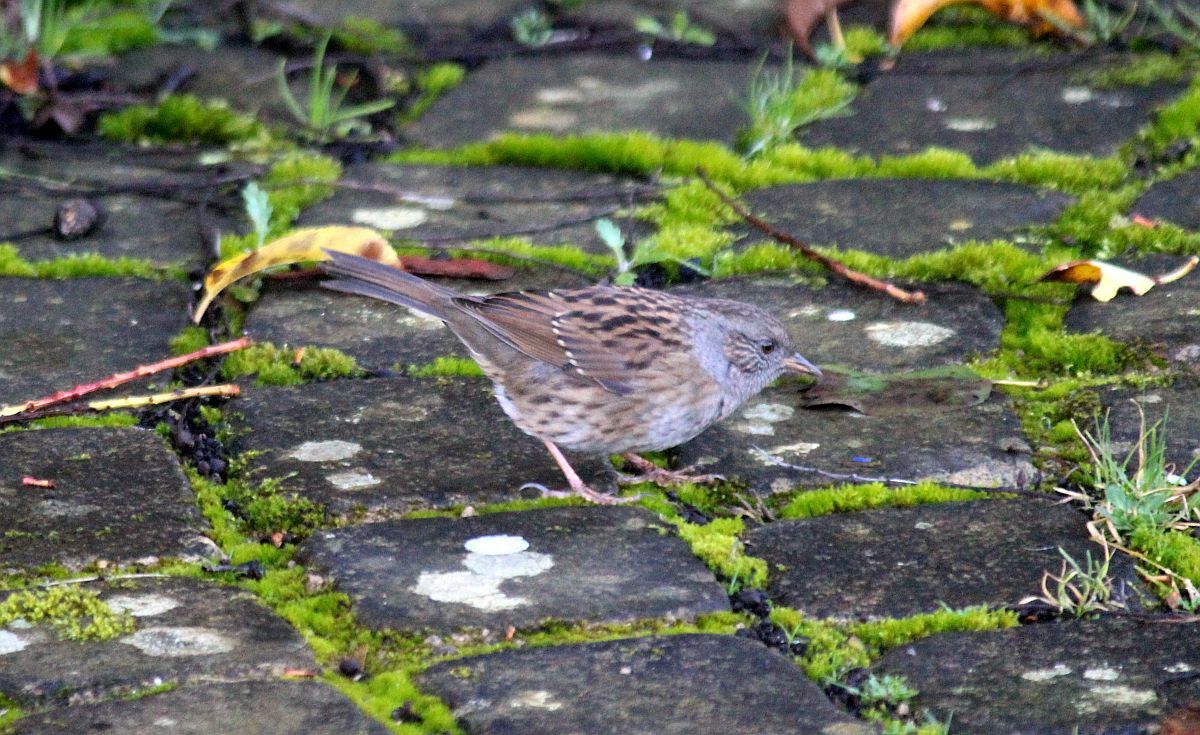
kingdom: Animalia
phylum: Chordata
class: Aves
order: Passeriformes
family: Prunellidae
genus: Prunella
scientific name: Prunella modularis
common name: Dunnock
